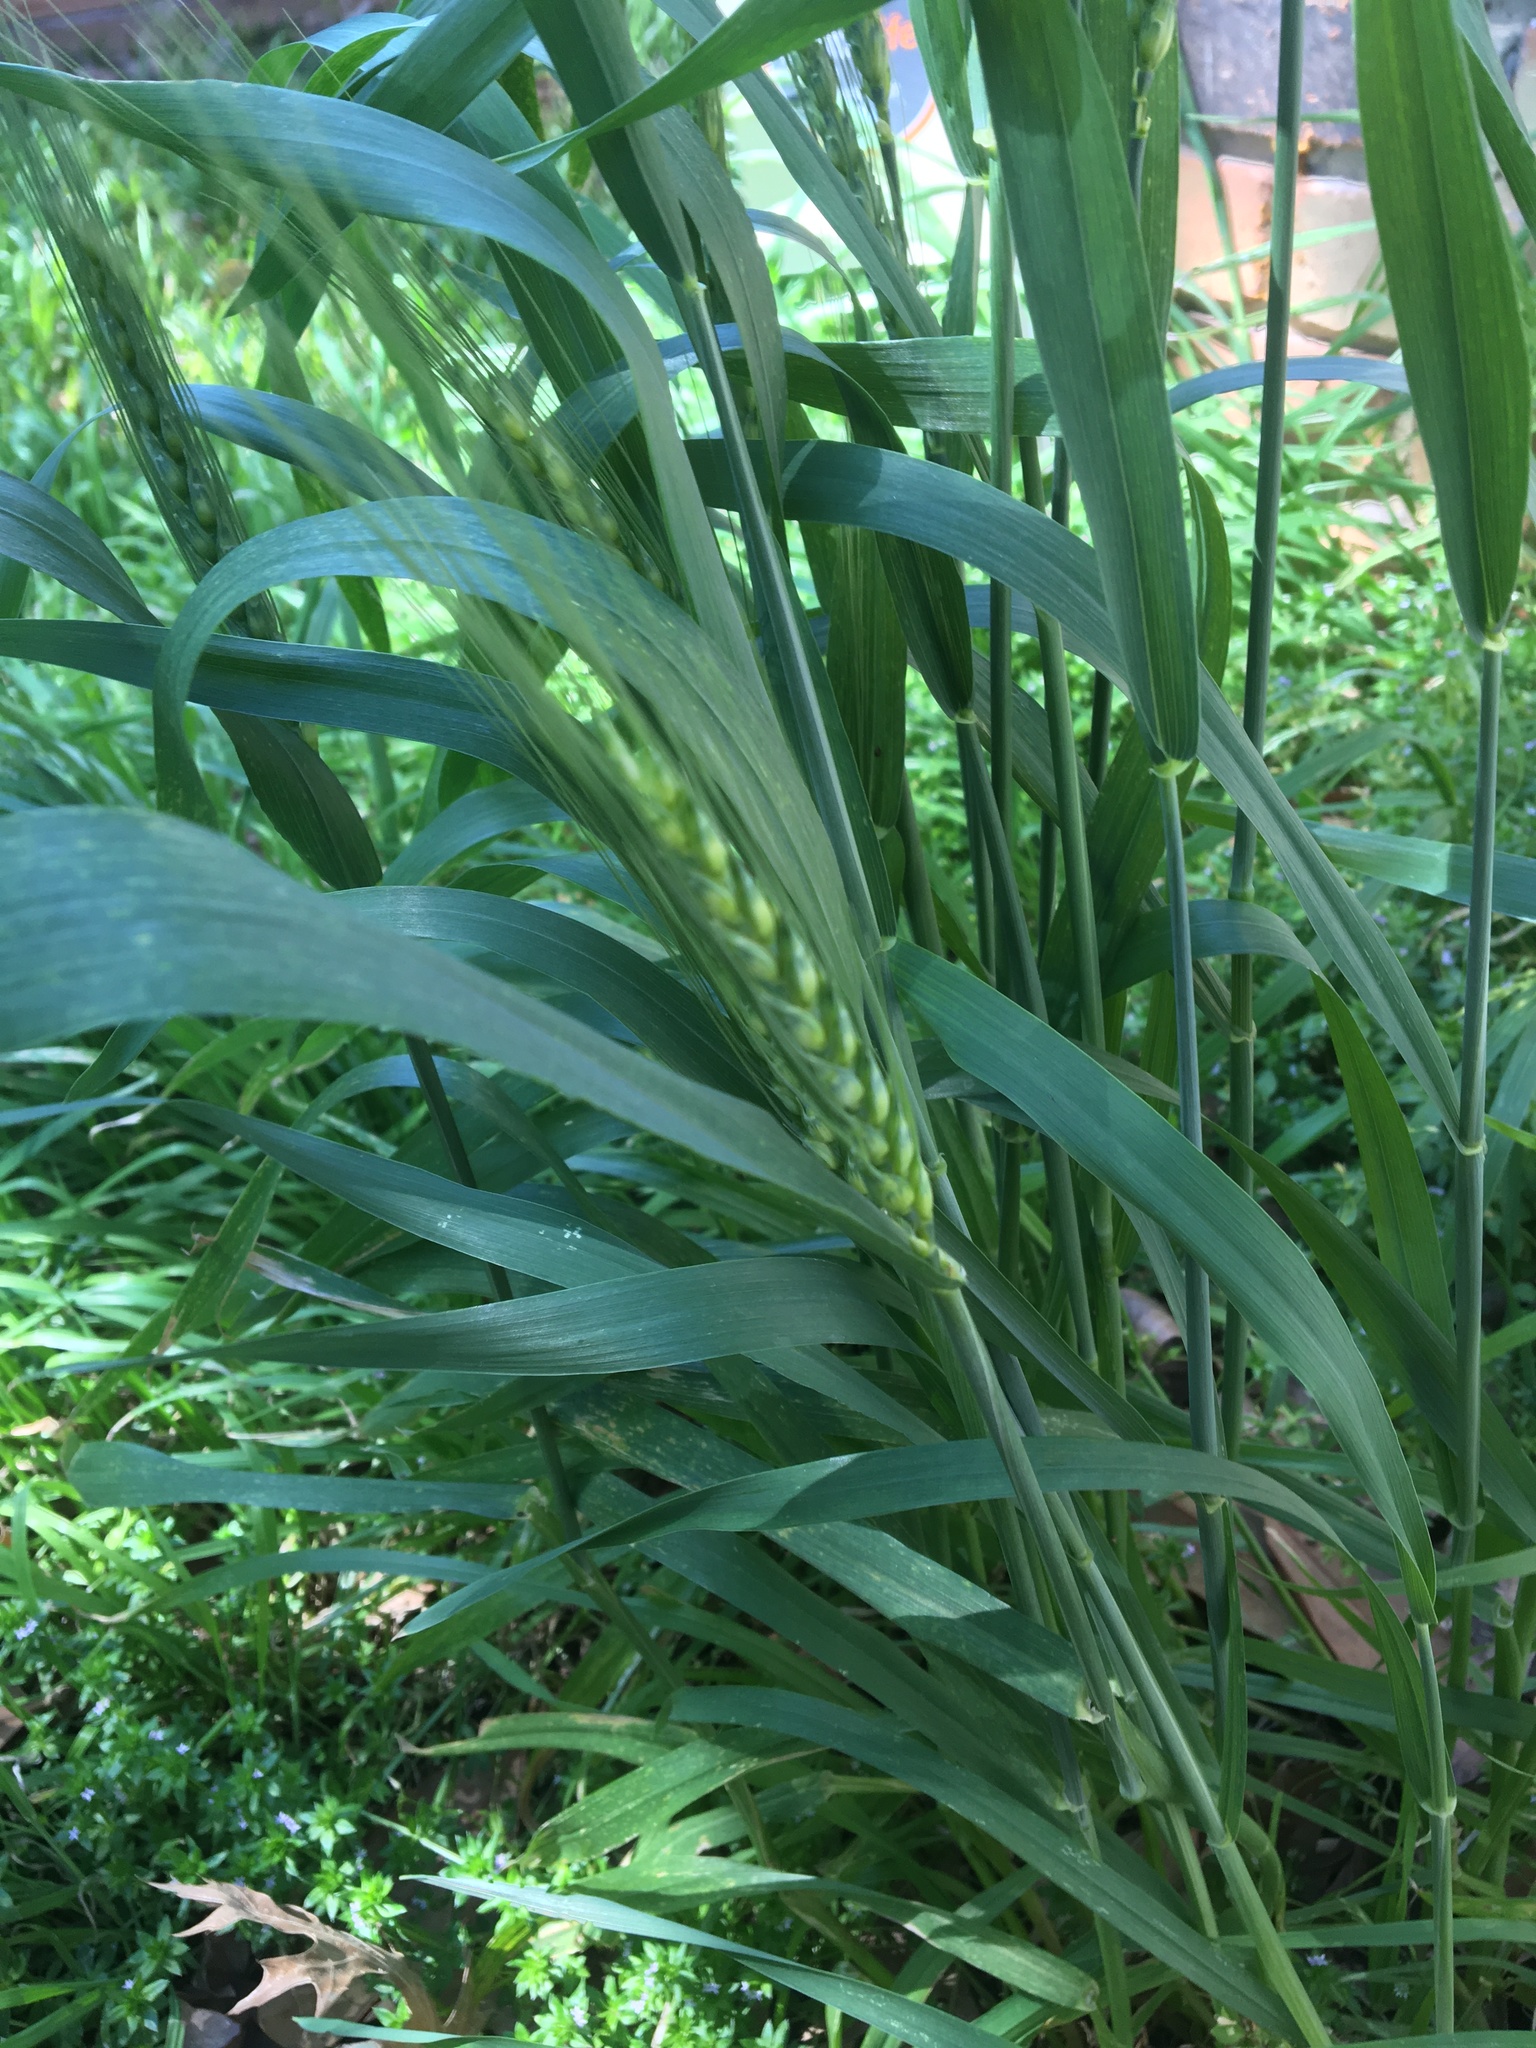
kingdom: Plantae
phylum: Tracheophyta
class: Liliopsida
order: Poales
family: Poaceae
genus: Triticum
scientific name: Triticum aestivum
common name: Common wheat
